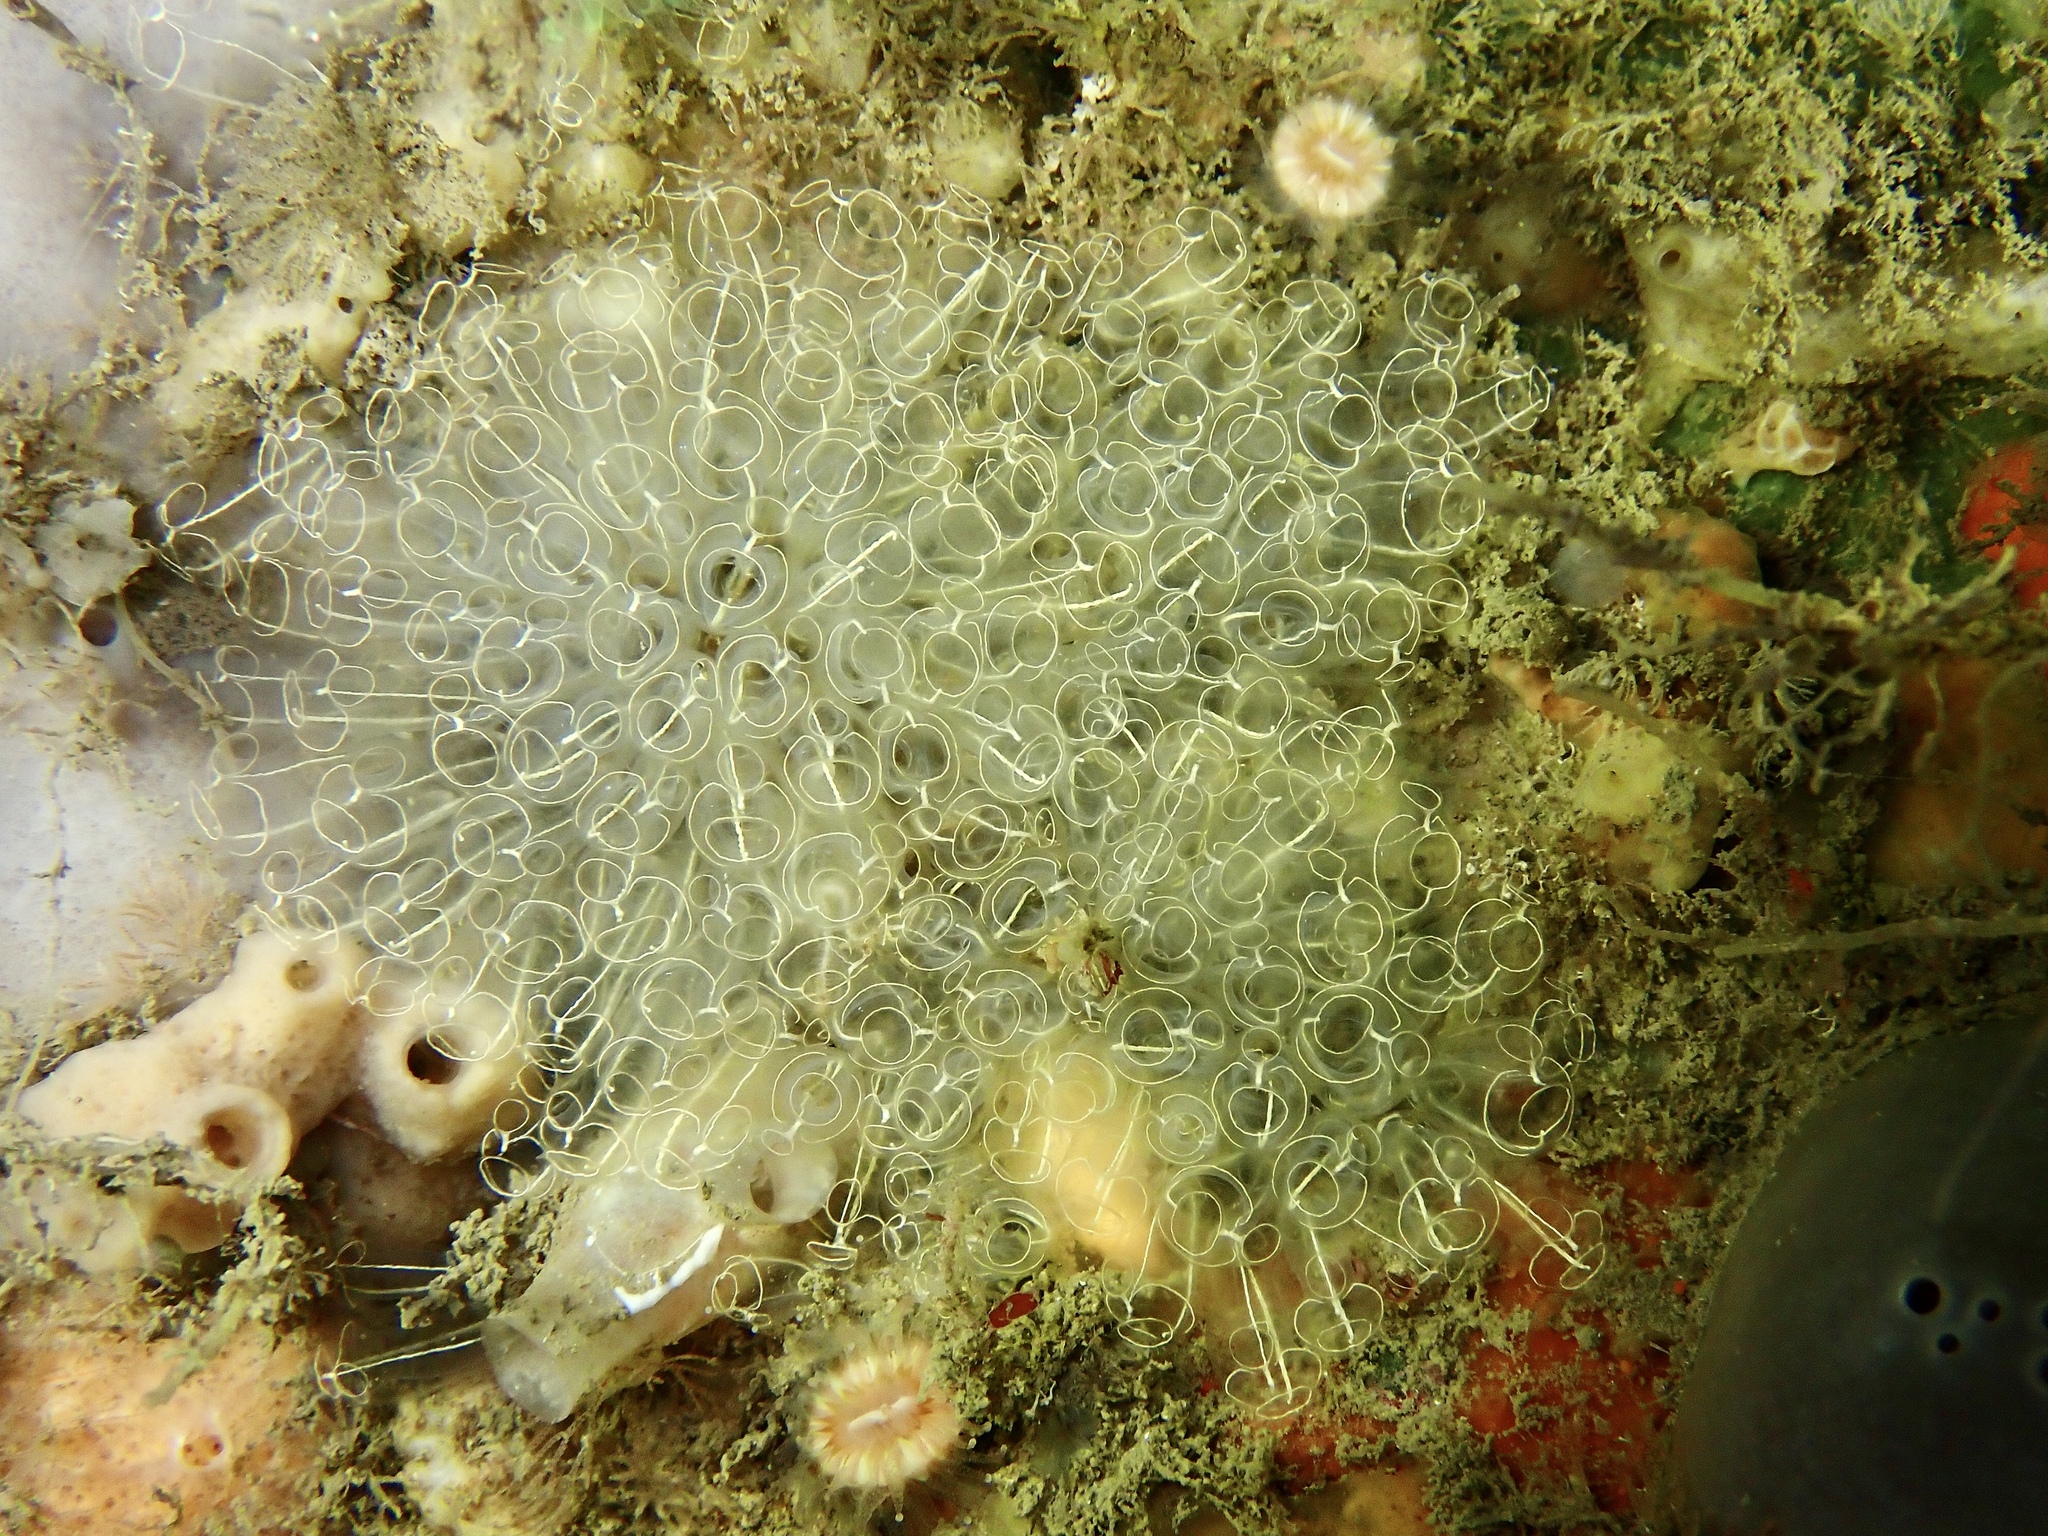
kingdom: Animalia
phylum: Chordata
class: Ascidiacea
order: Aplousobranchia
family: Clavelinidae
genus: Clavelina
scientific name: Clavelina lepadiformis
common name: Light bulb tunicate
